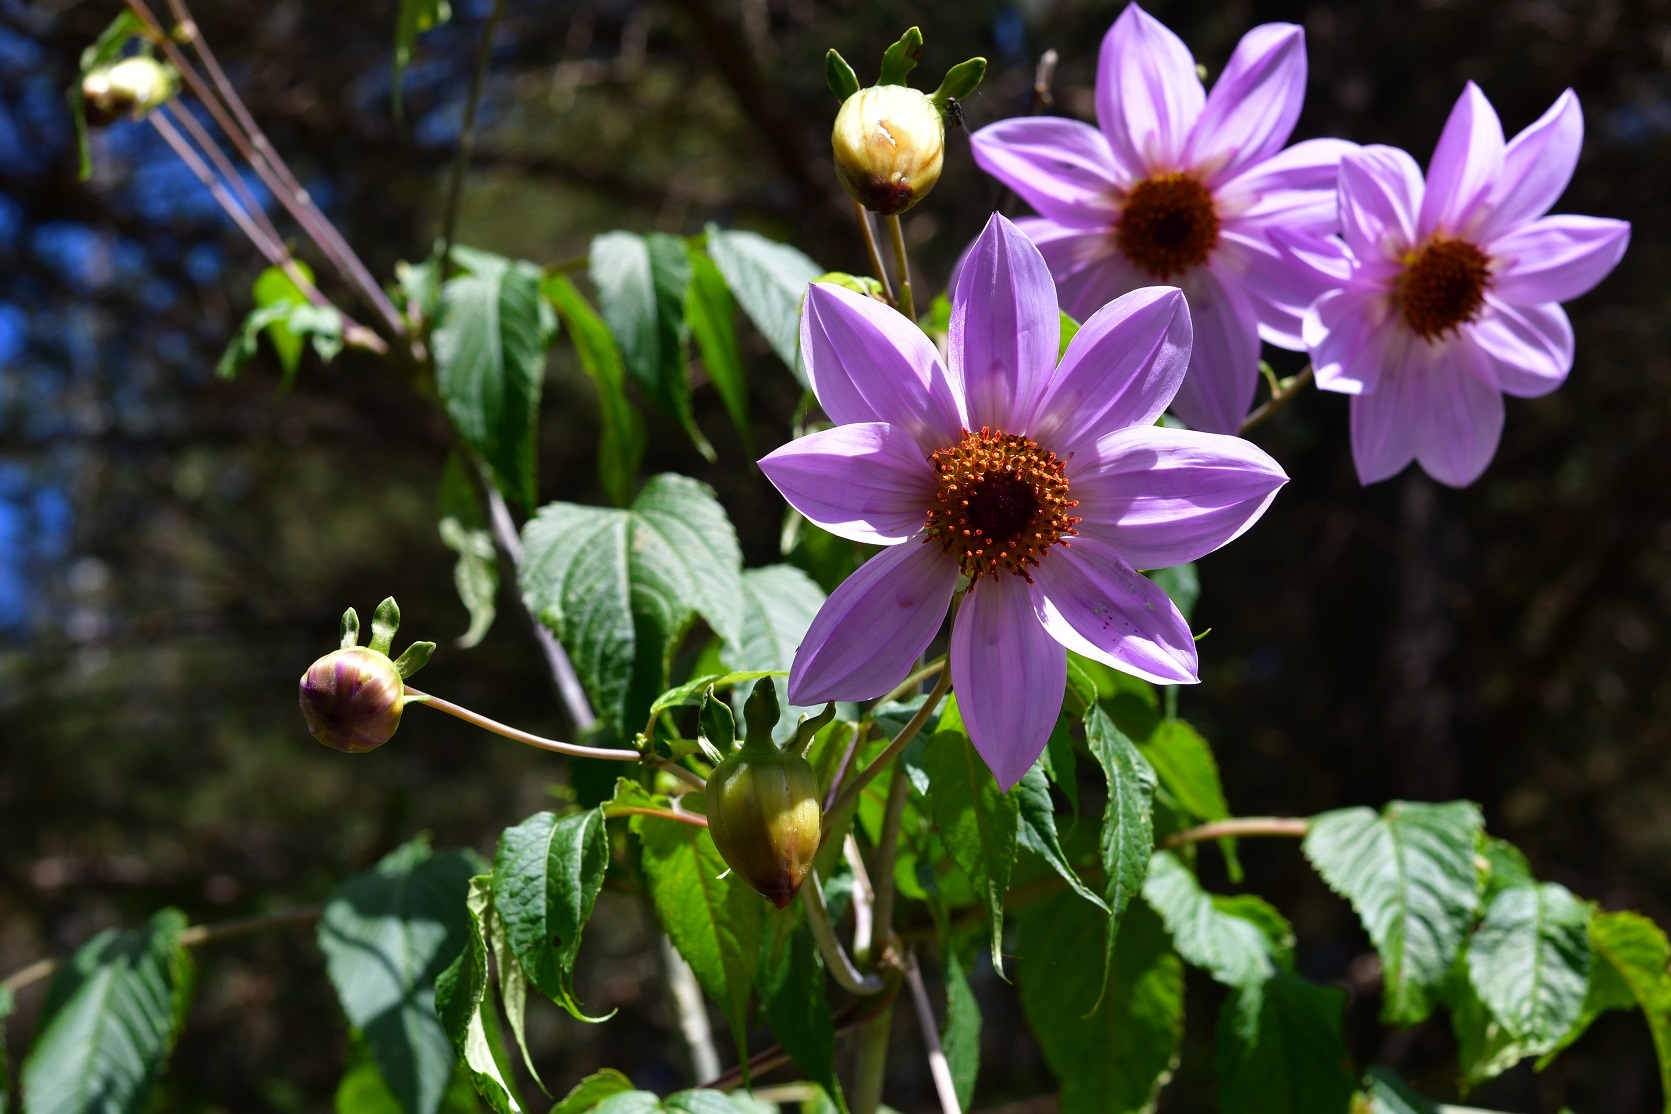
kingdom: Plantae
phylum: Tracheophyta
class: Magnoliopsida
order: Asterales
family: Asteraceae
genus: Dahlia
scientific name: Dahlia imperialis
